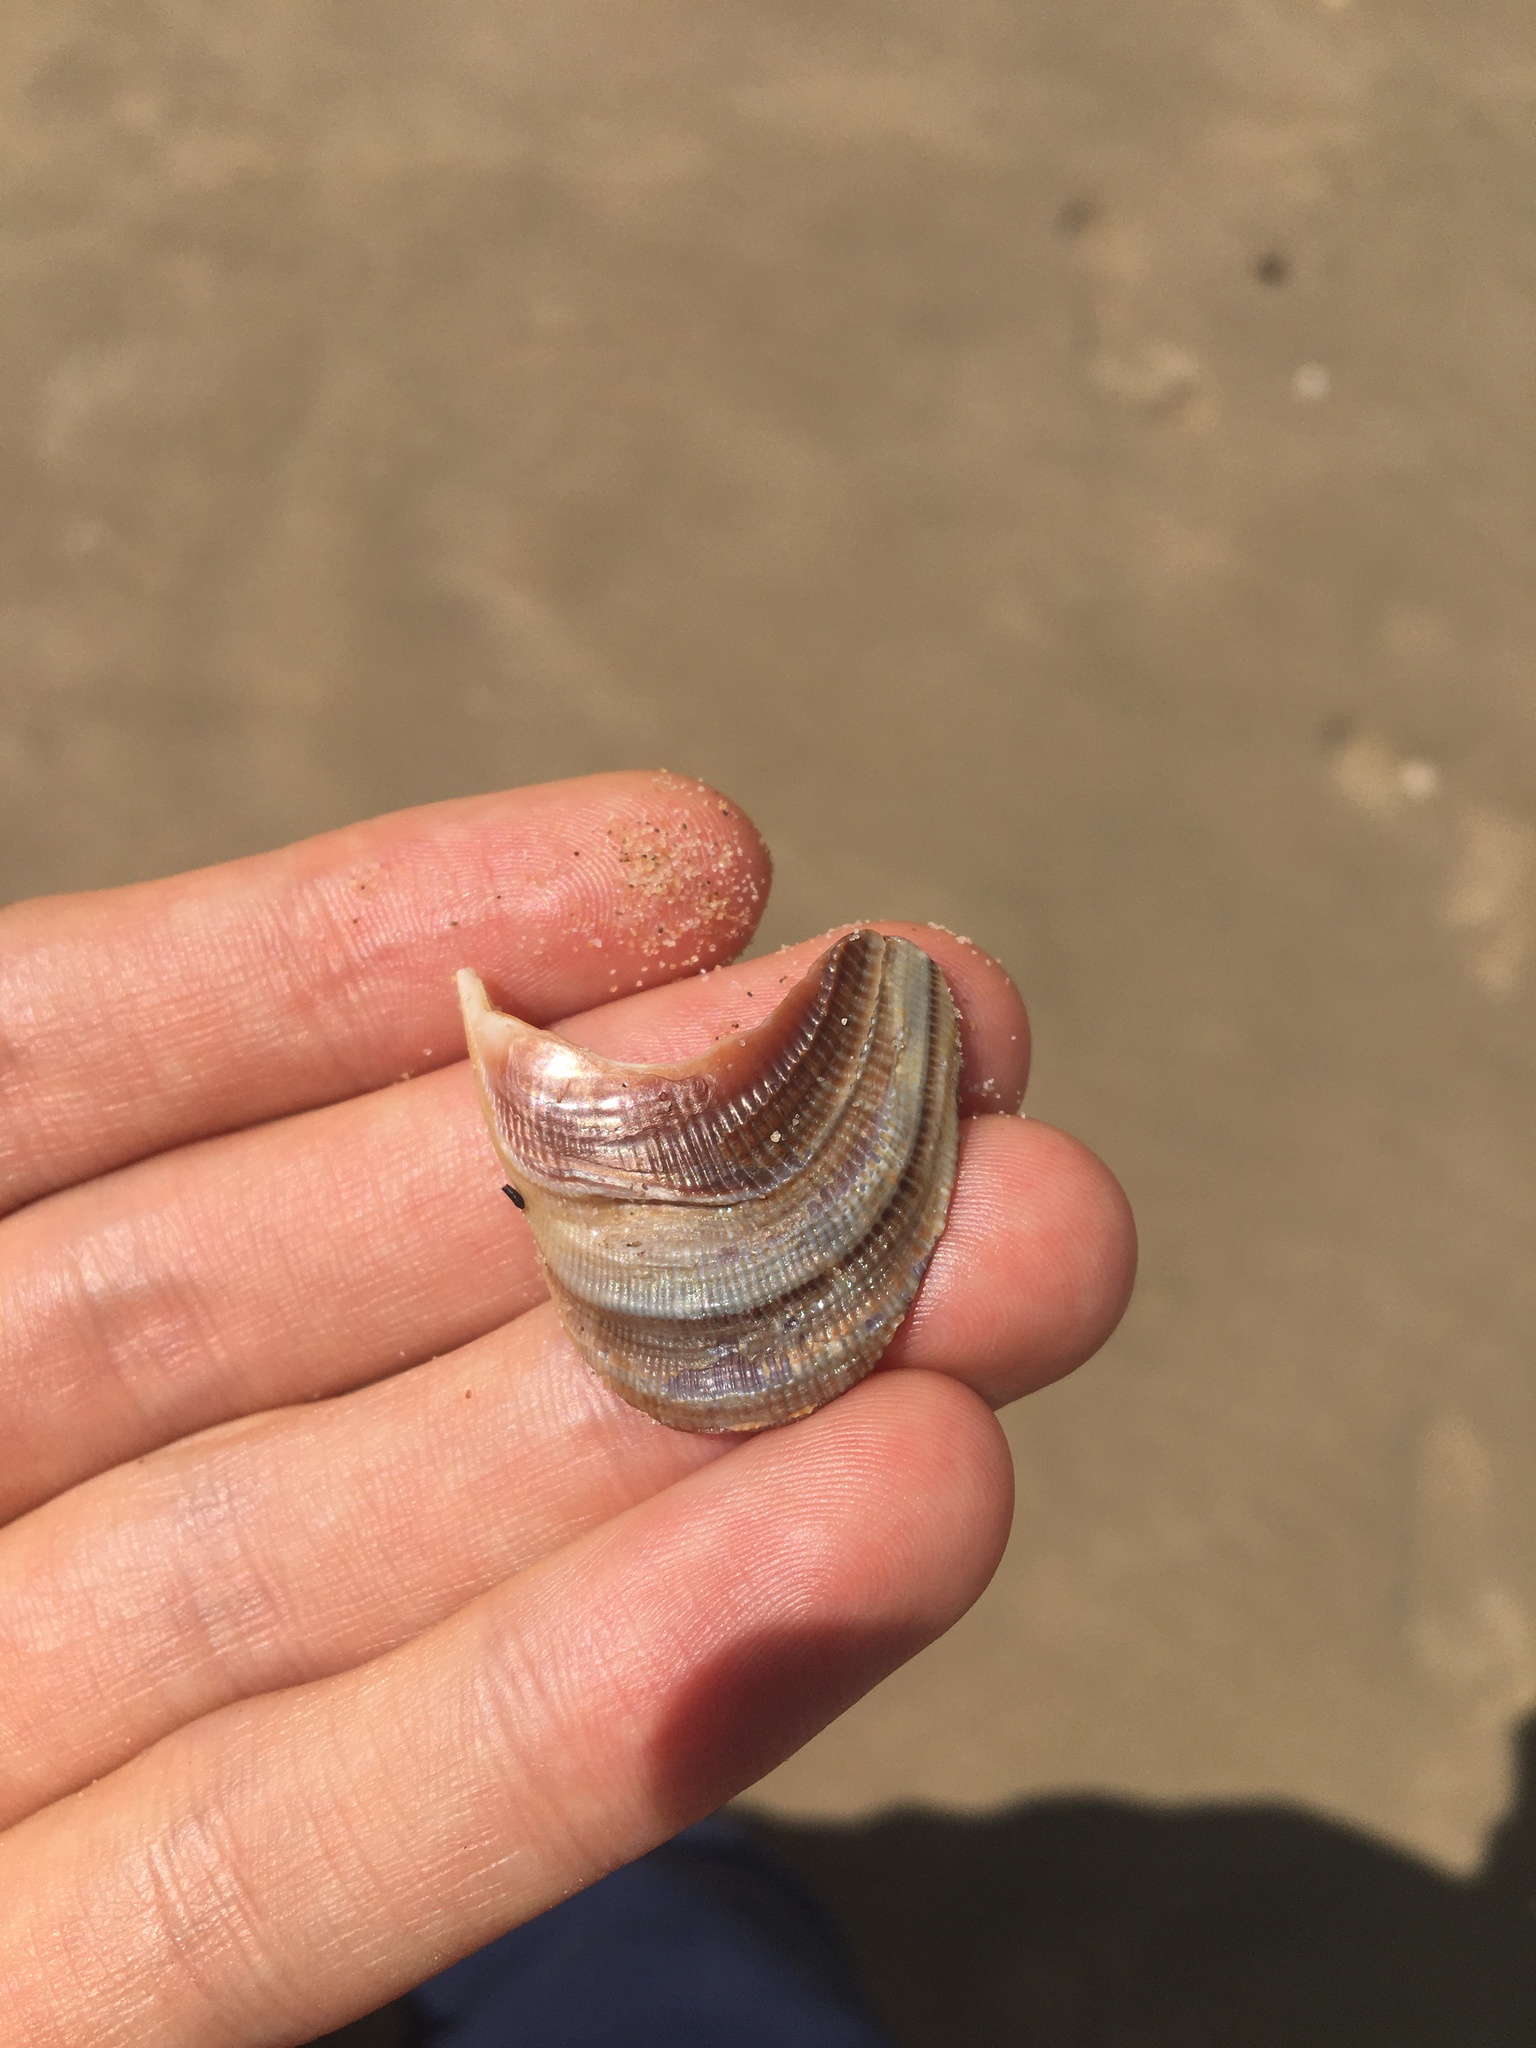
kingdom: Animalia
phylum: Mollusca
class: Bivalvia
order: Mytilida
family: Mytilidae
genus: Trichomya
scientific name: Trichomya hirsuta
